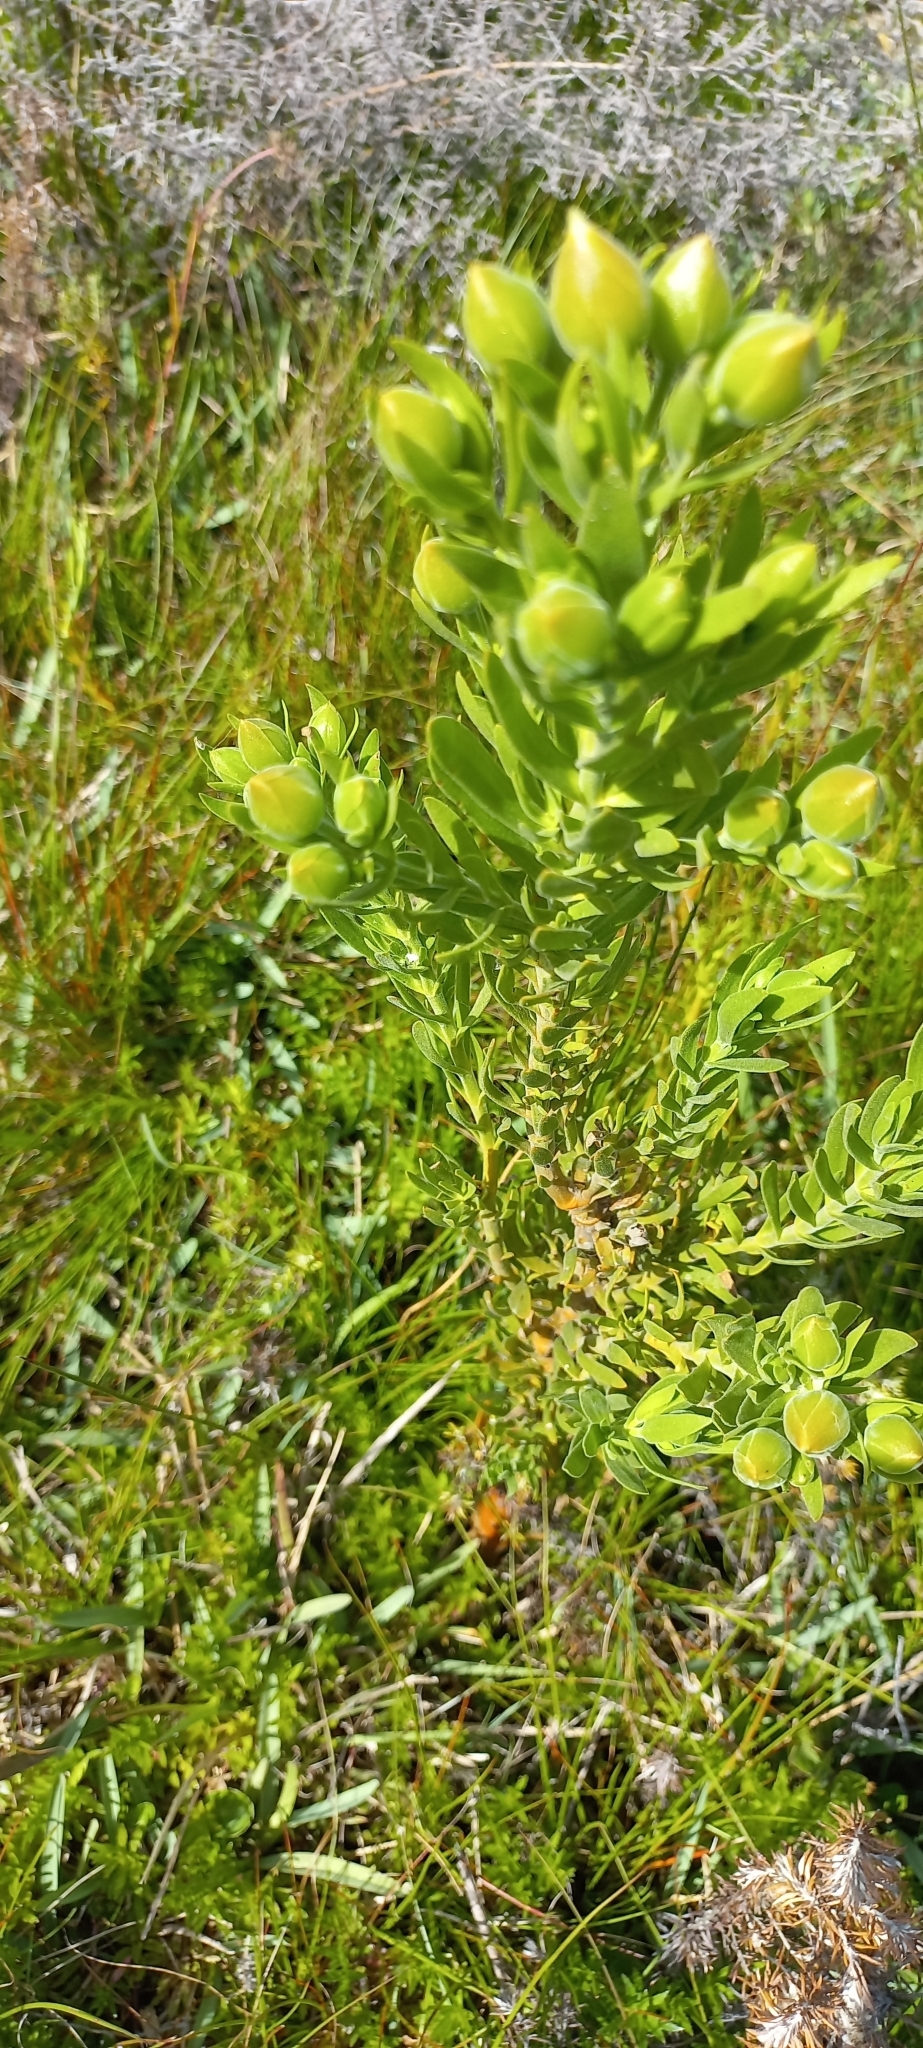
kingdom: Plantae
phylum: Tracheophyta
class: Magnoliopsida
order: Gentianales
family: Gentianaceae
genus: Orphium
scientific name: Orphium frutescens
